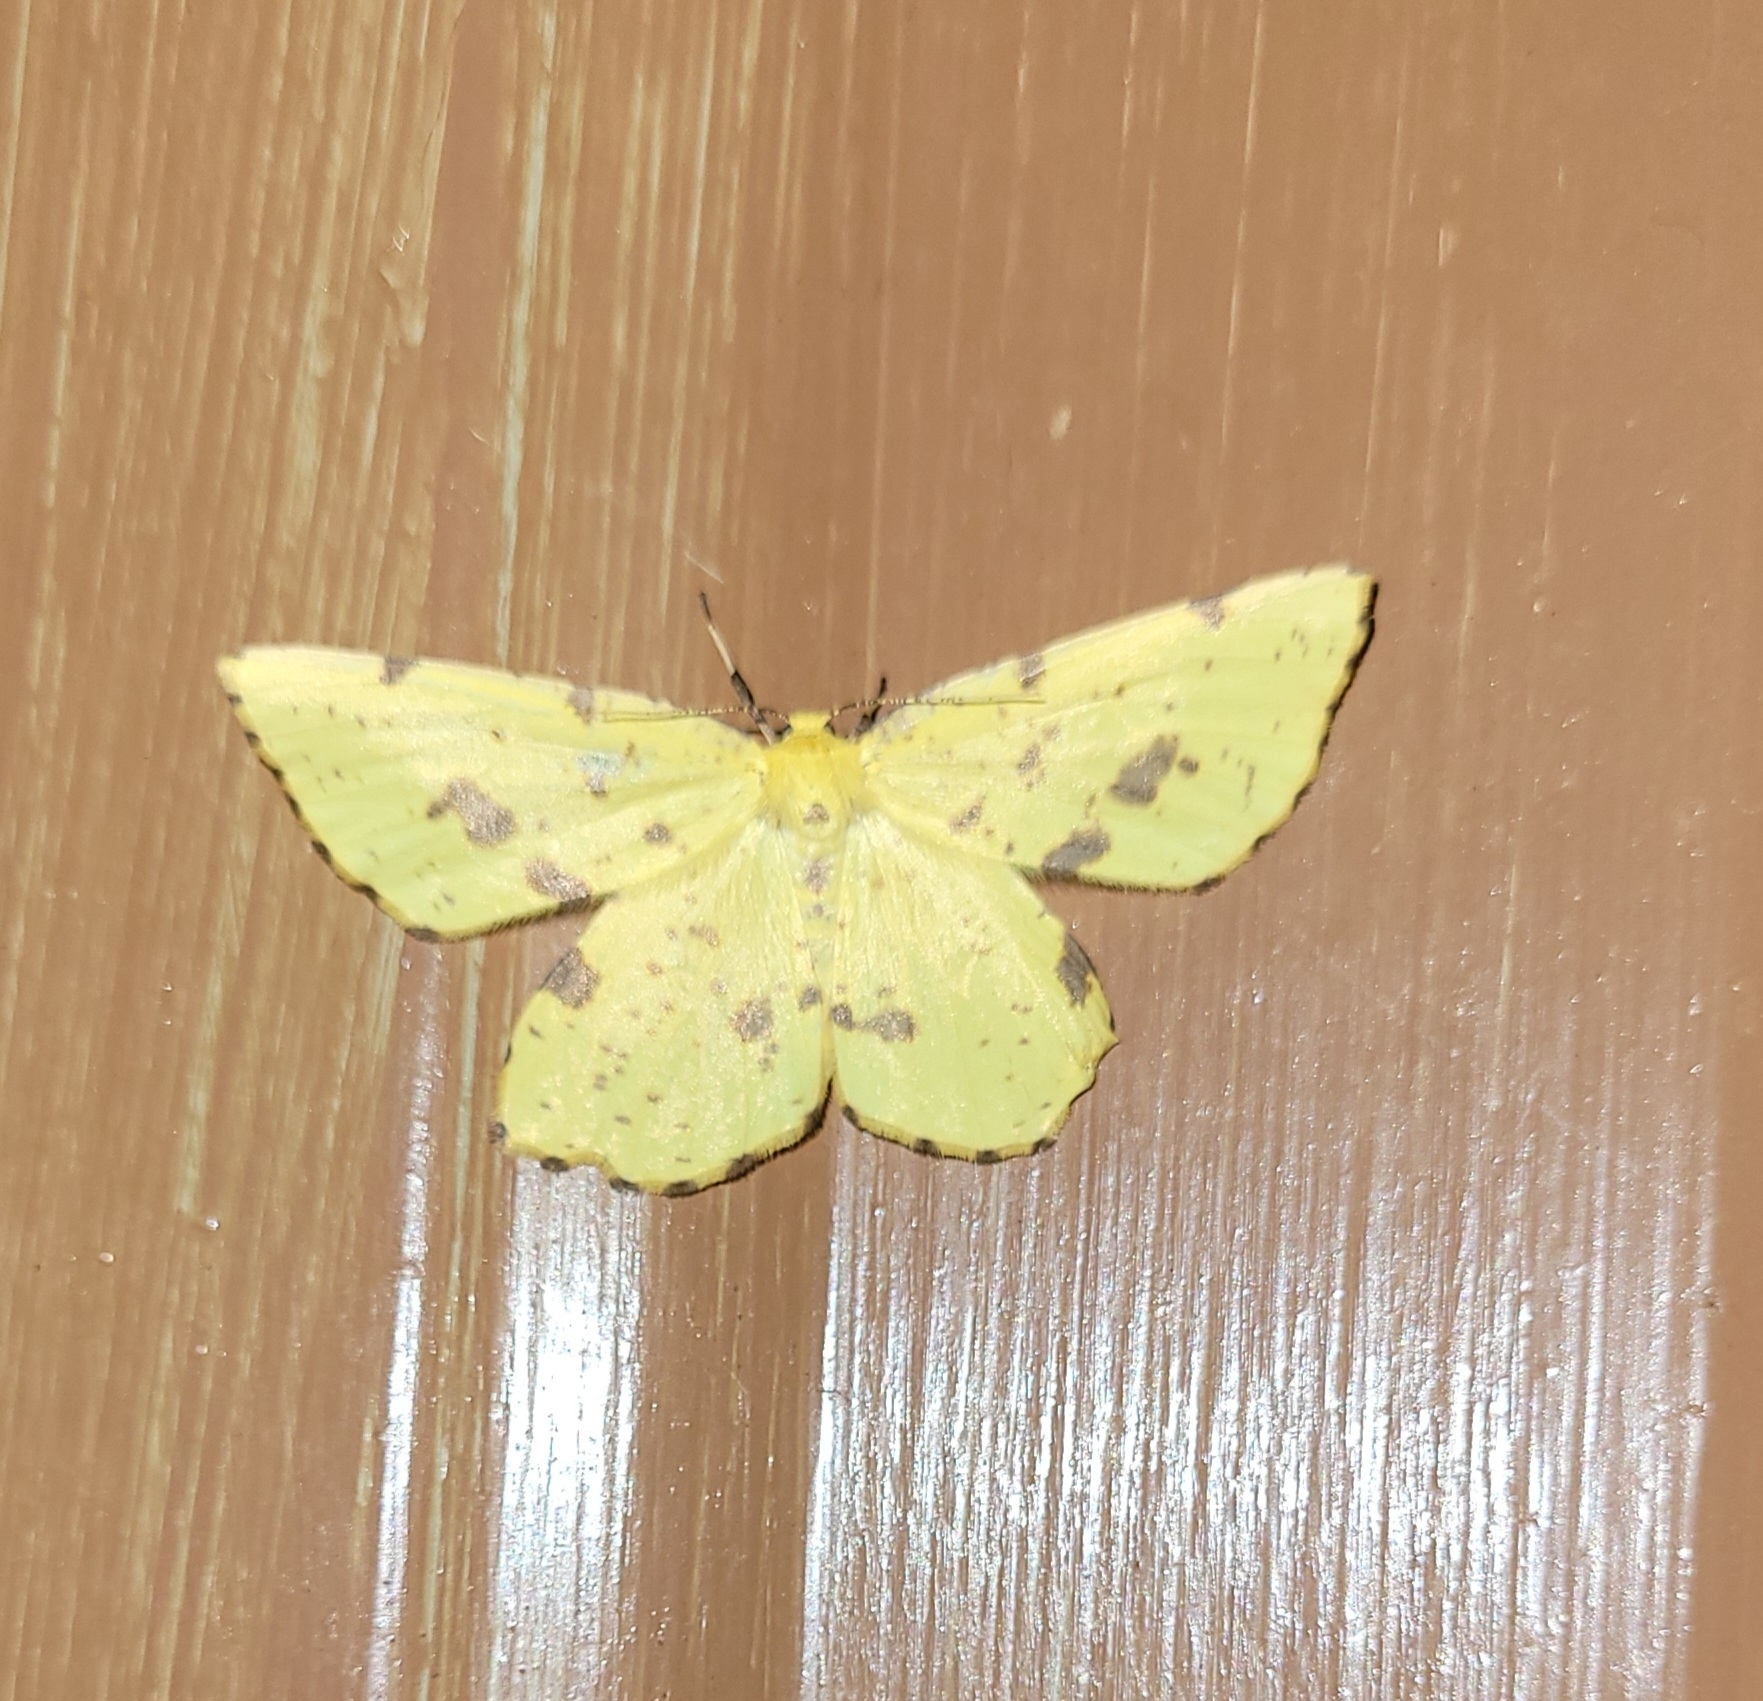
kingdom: Animalia
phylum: Arthropoda
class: Insecta
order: Lepidoptera
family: Geometridae
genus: Xanthotype
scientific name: Xanthotype
